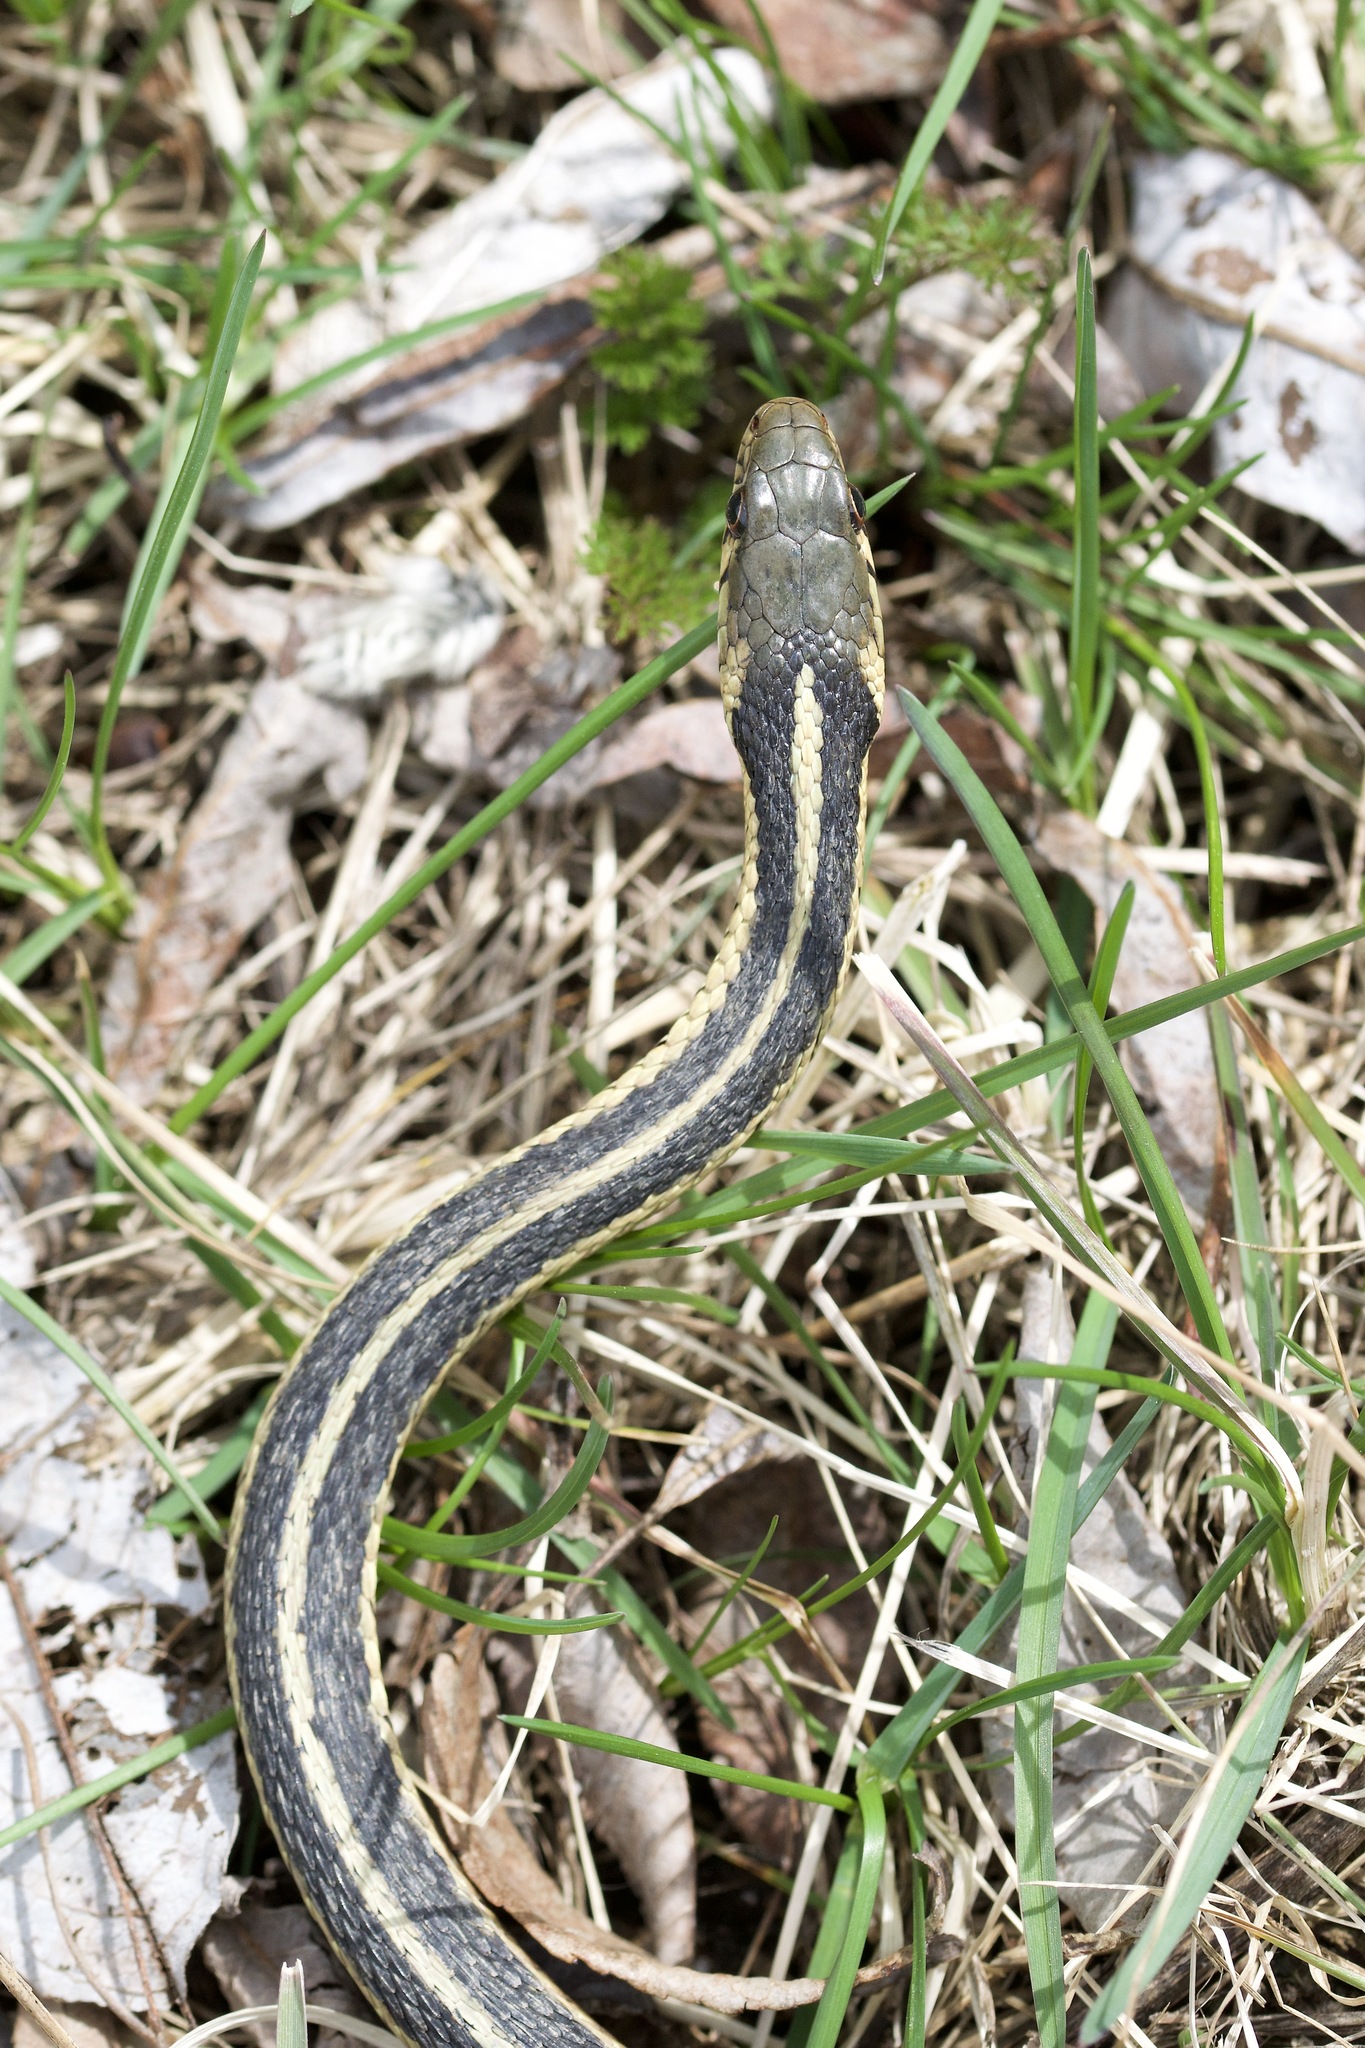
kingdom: Animalia
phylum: Chordata
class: Squamata
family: Colubridae
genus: Thamnophis
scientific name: Thamnophis sirtalis
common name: Common garter snake
